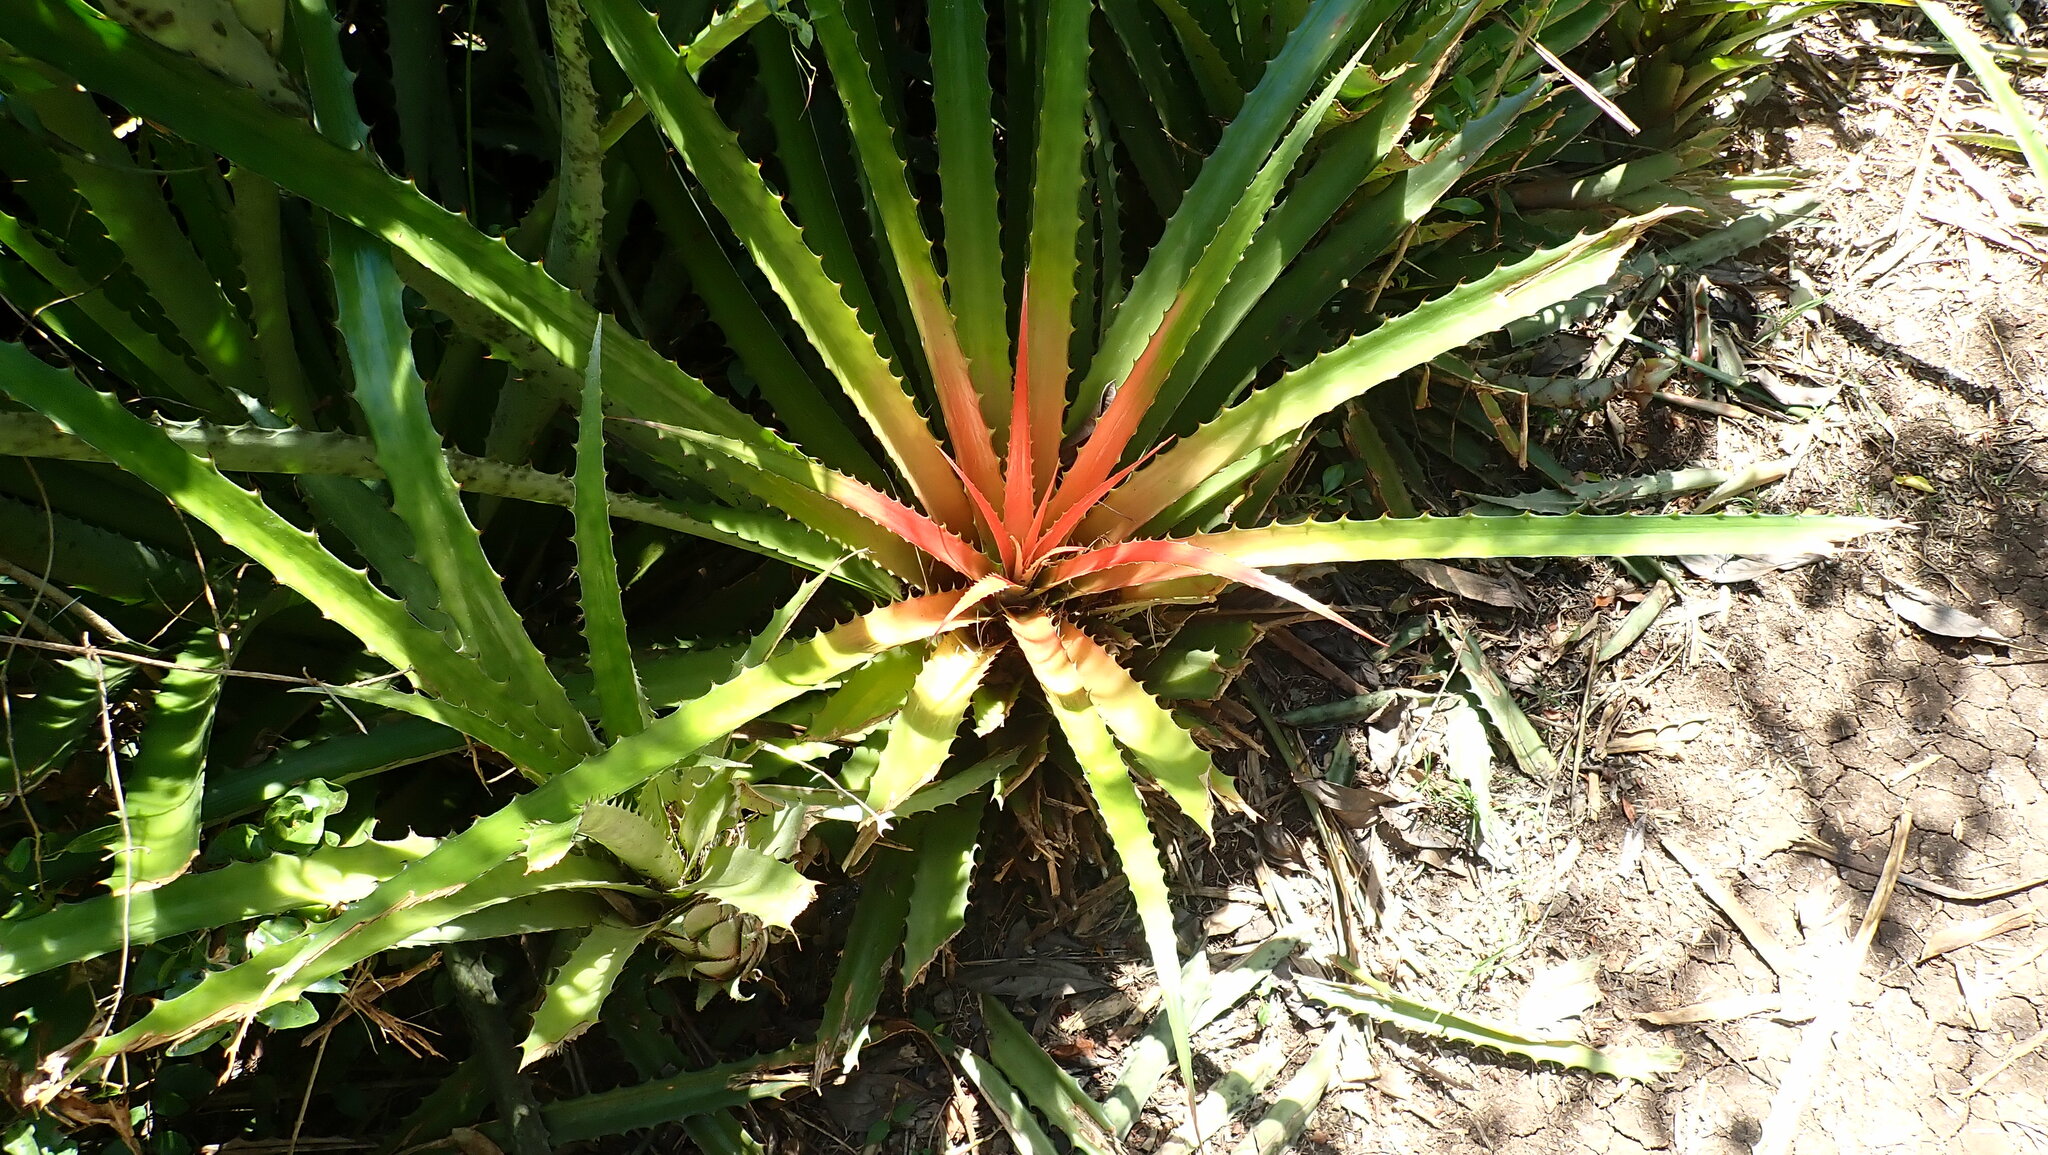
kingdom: Plantae
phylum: Tracheophyta
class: Liliopsida
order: Poales
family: Bromeliaceae
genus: Bromelia
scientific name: Bromelia pinguin
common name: Pinguin
